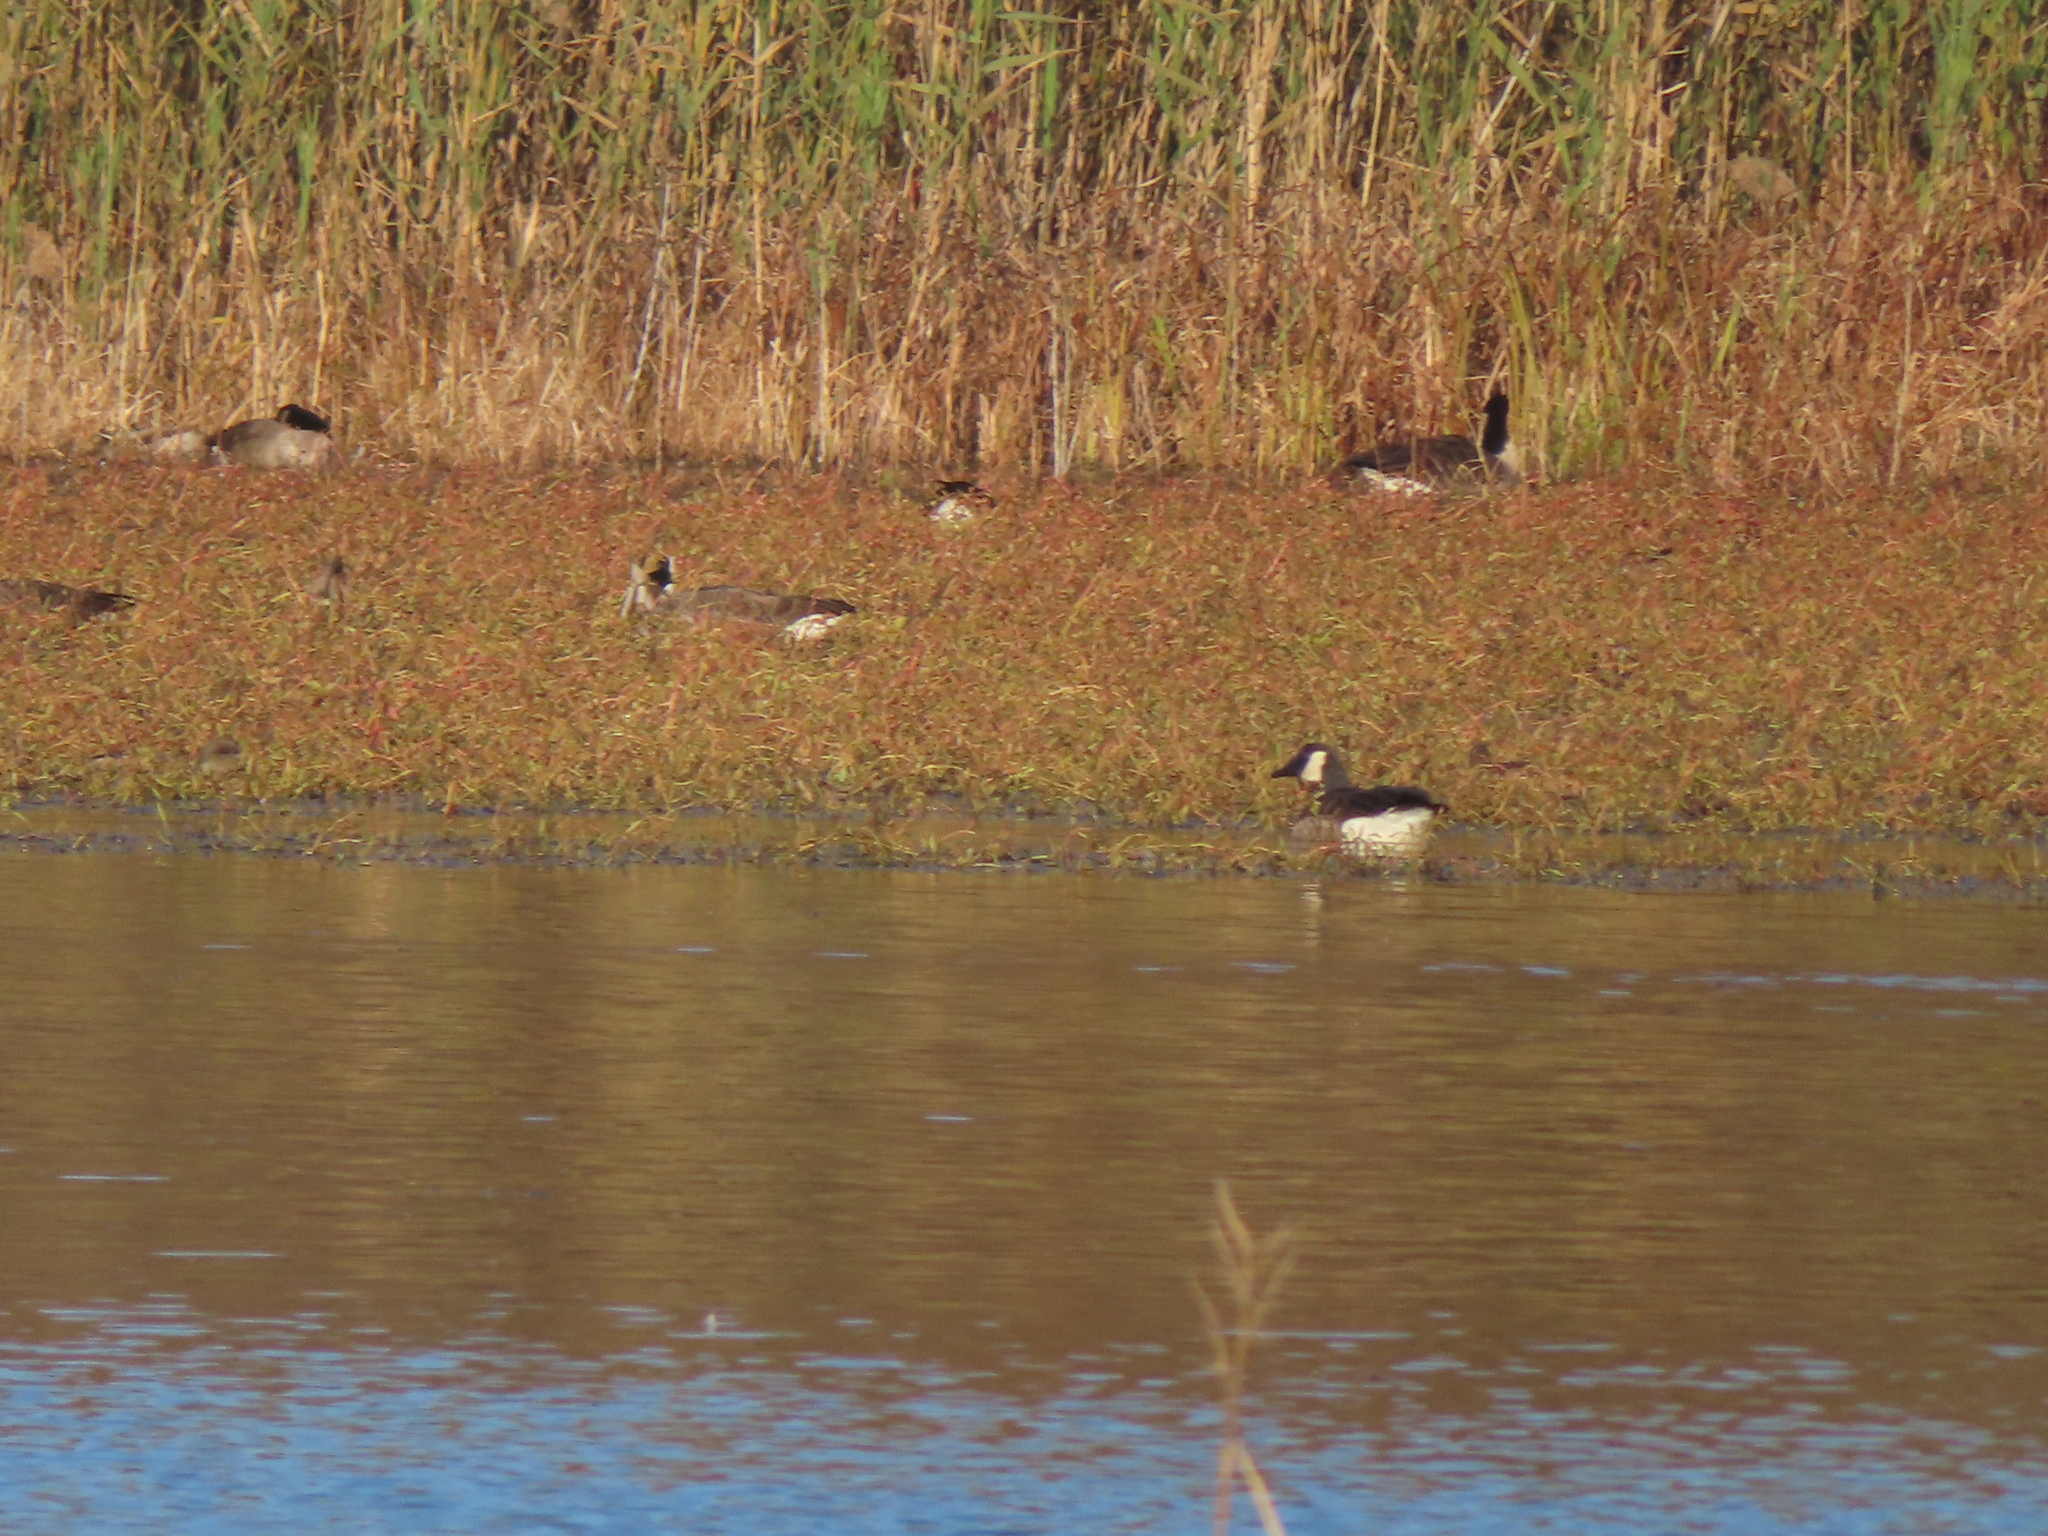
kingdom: Animalia
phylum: Chordata
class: Aves
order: Anseriformes
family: Anatidae
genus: Branta
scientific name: Branta canadensis
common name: Canada goose
